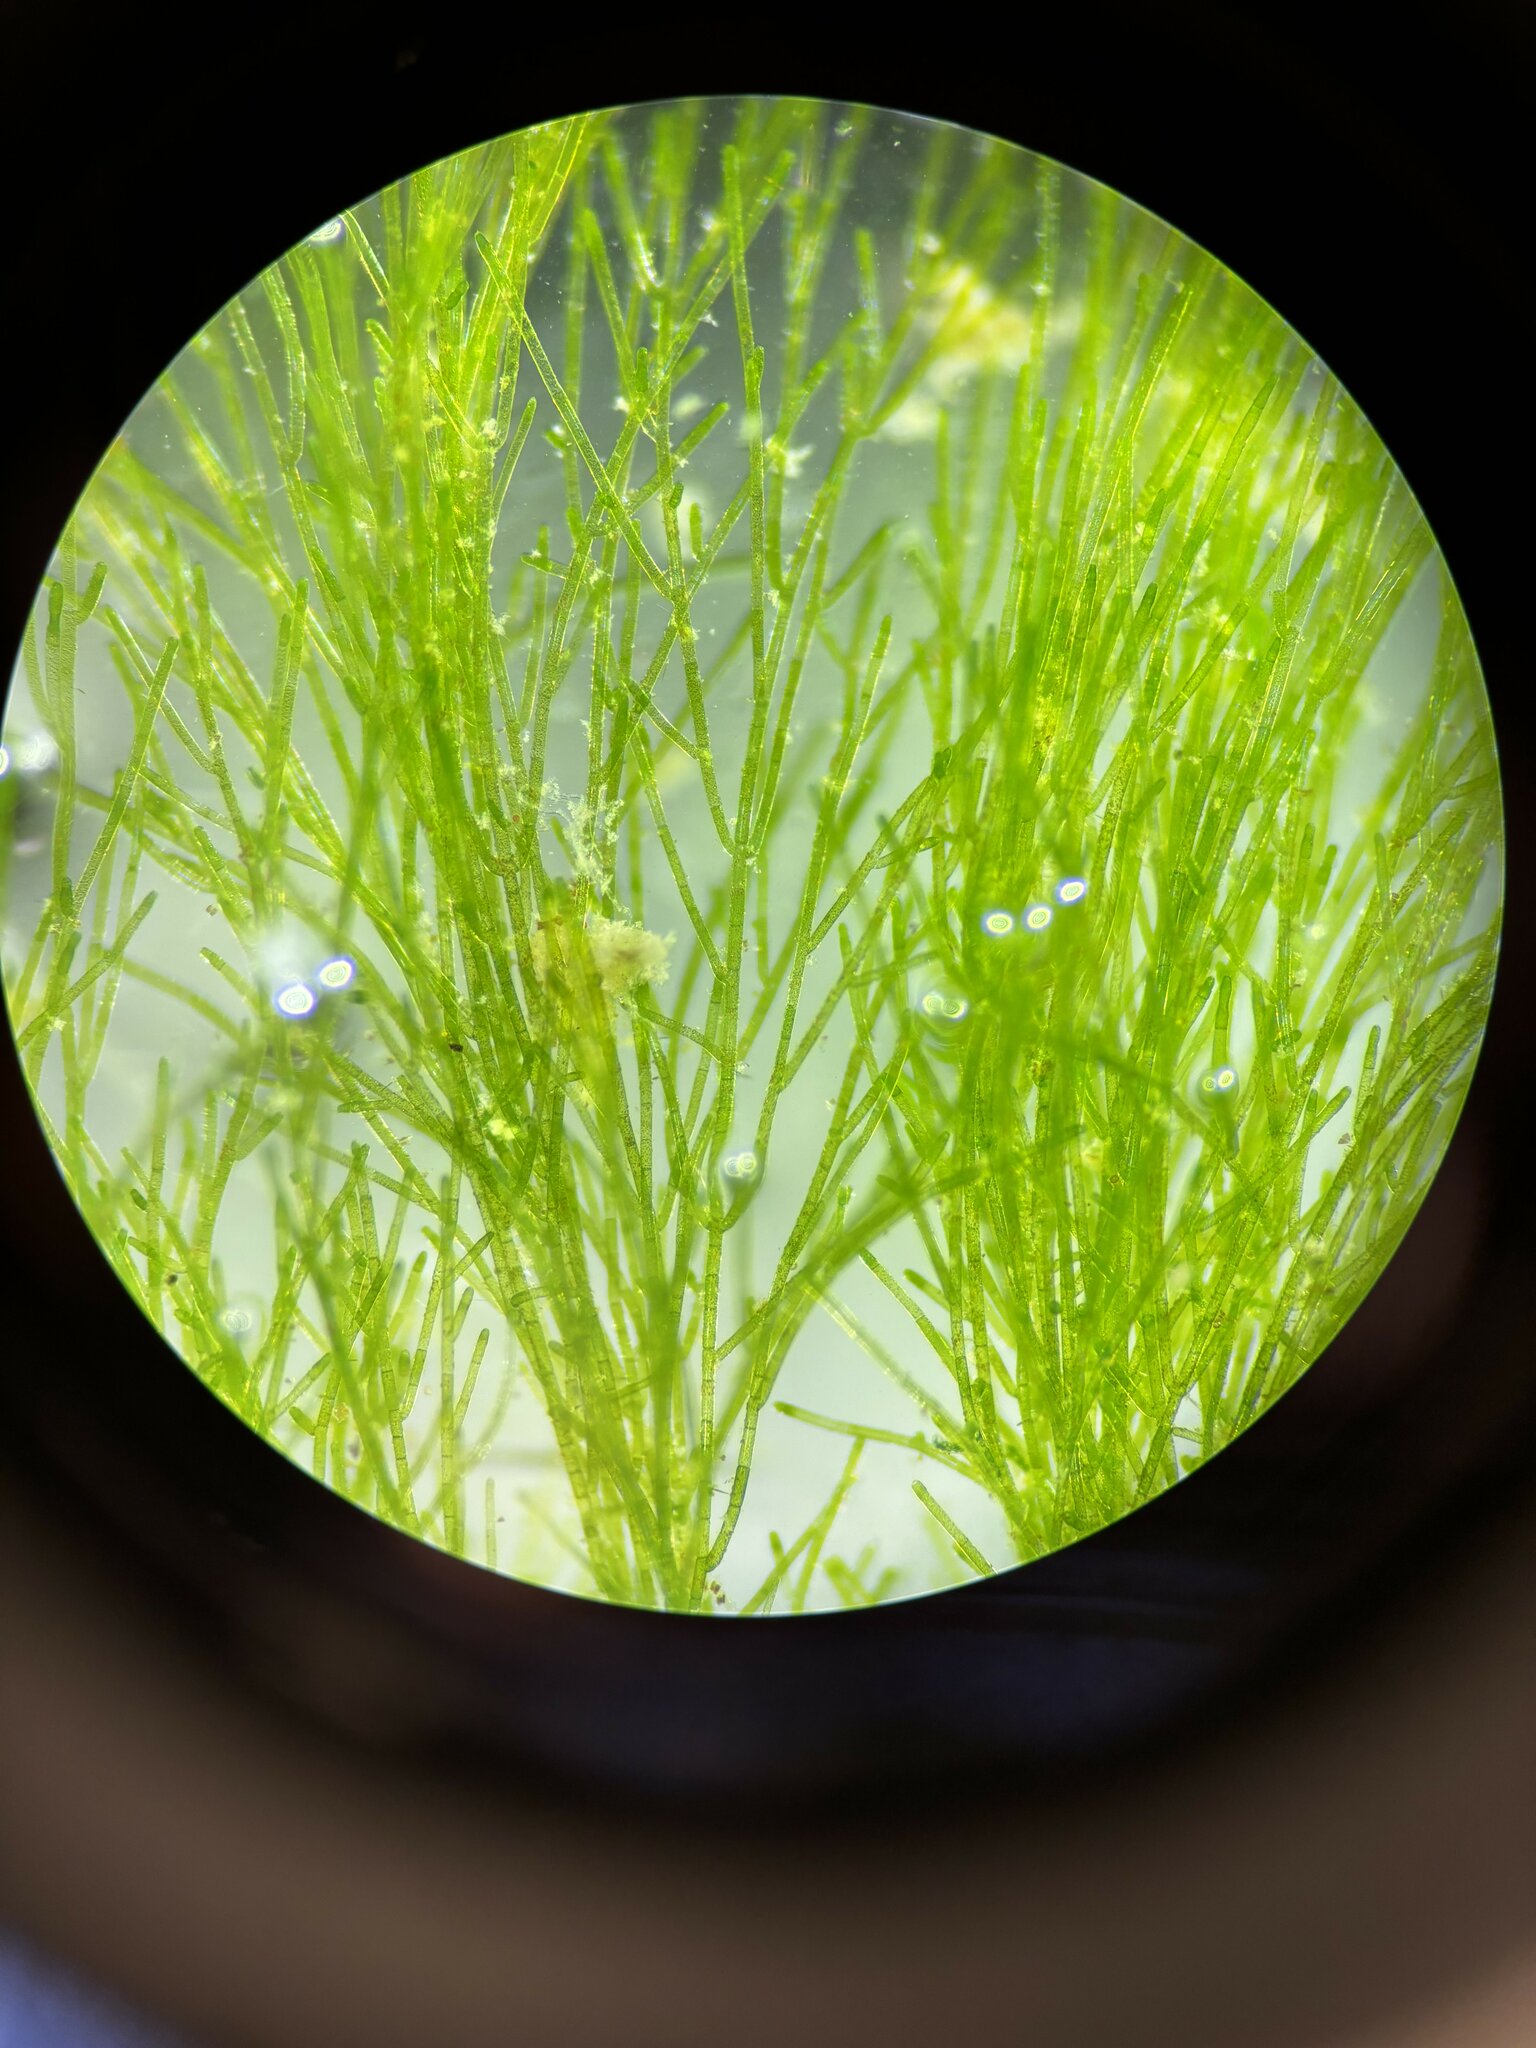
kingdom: Plantae
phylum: Chlorophyta
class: Ulvophyceae
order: Ulotrichales
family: Ulotrichaceae
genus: Acrosiphonia
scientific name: Acrosiphonia arcta
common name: Green tarantula weed
